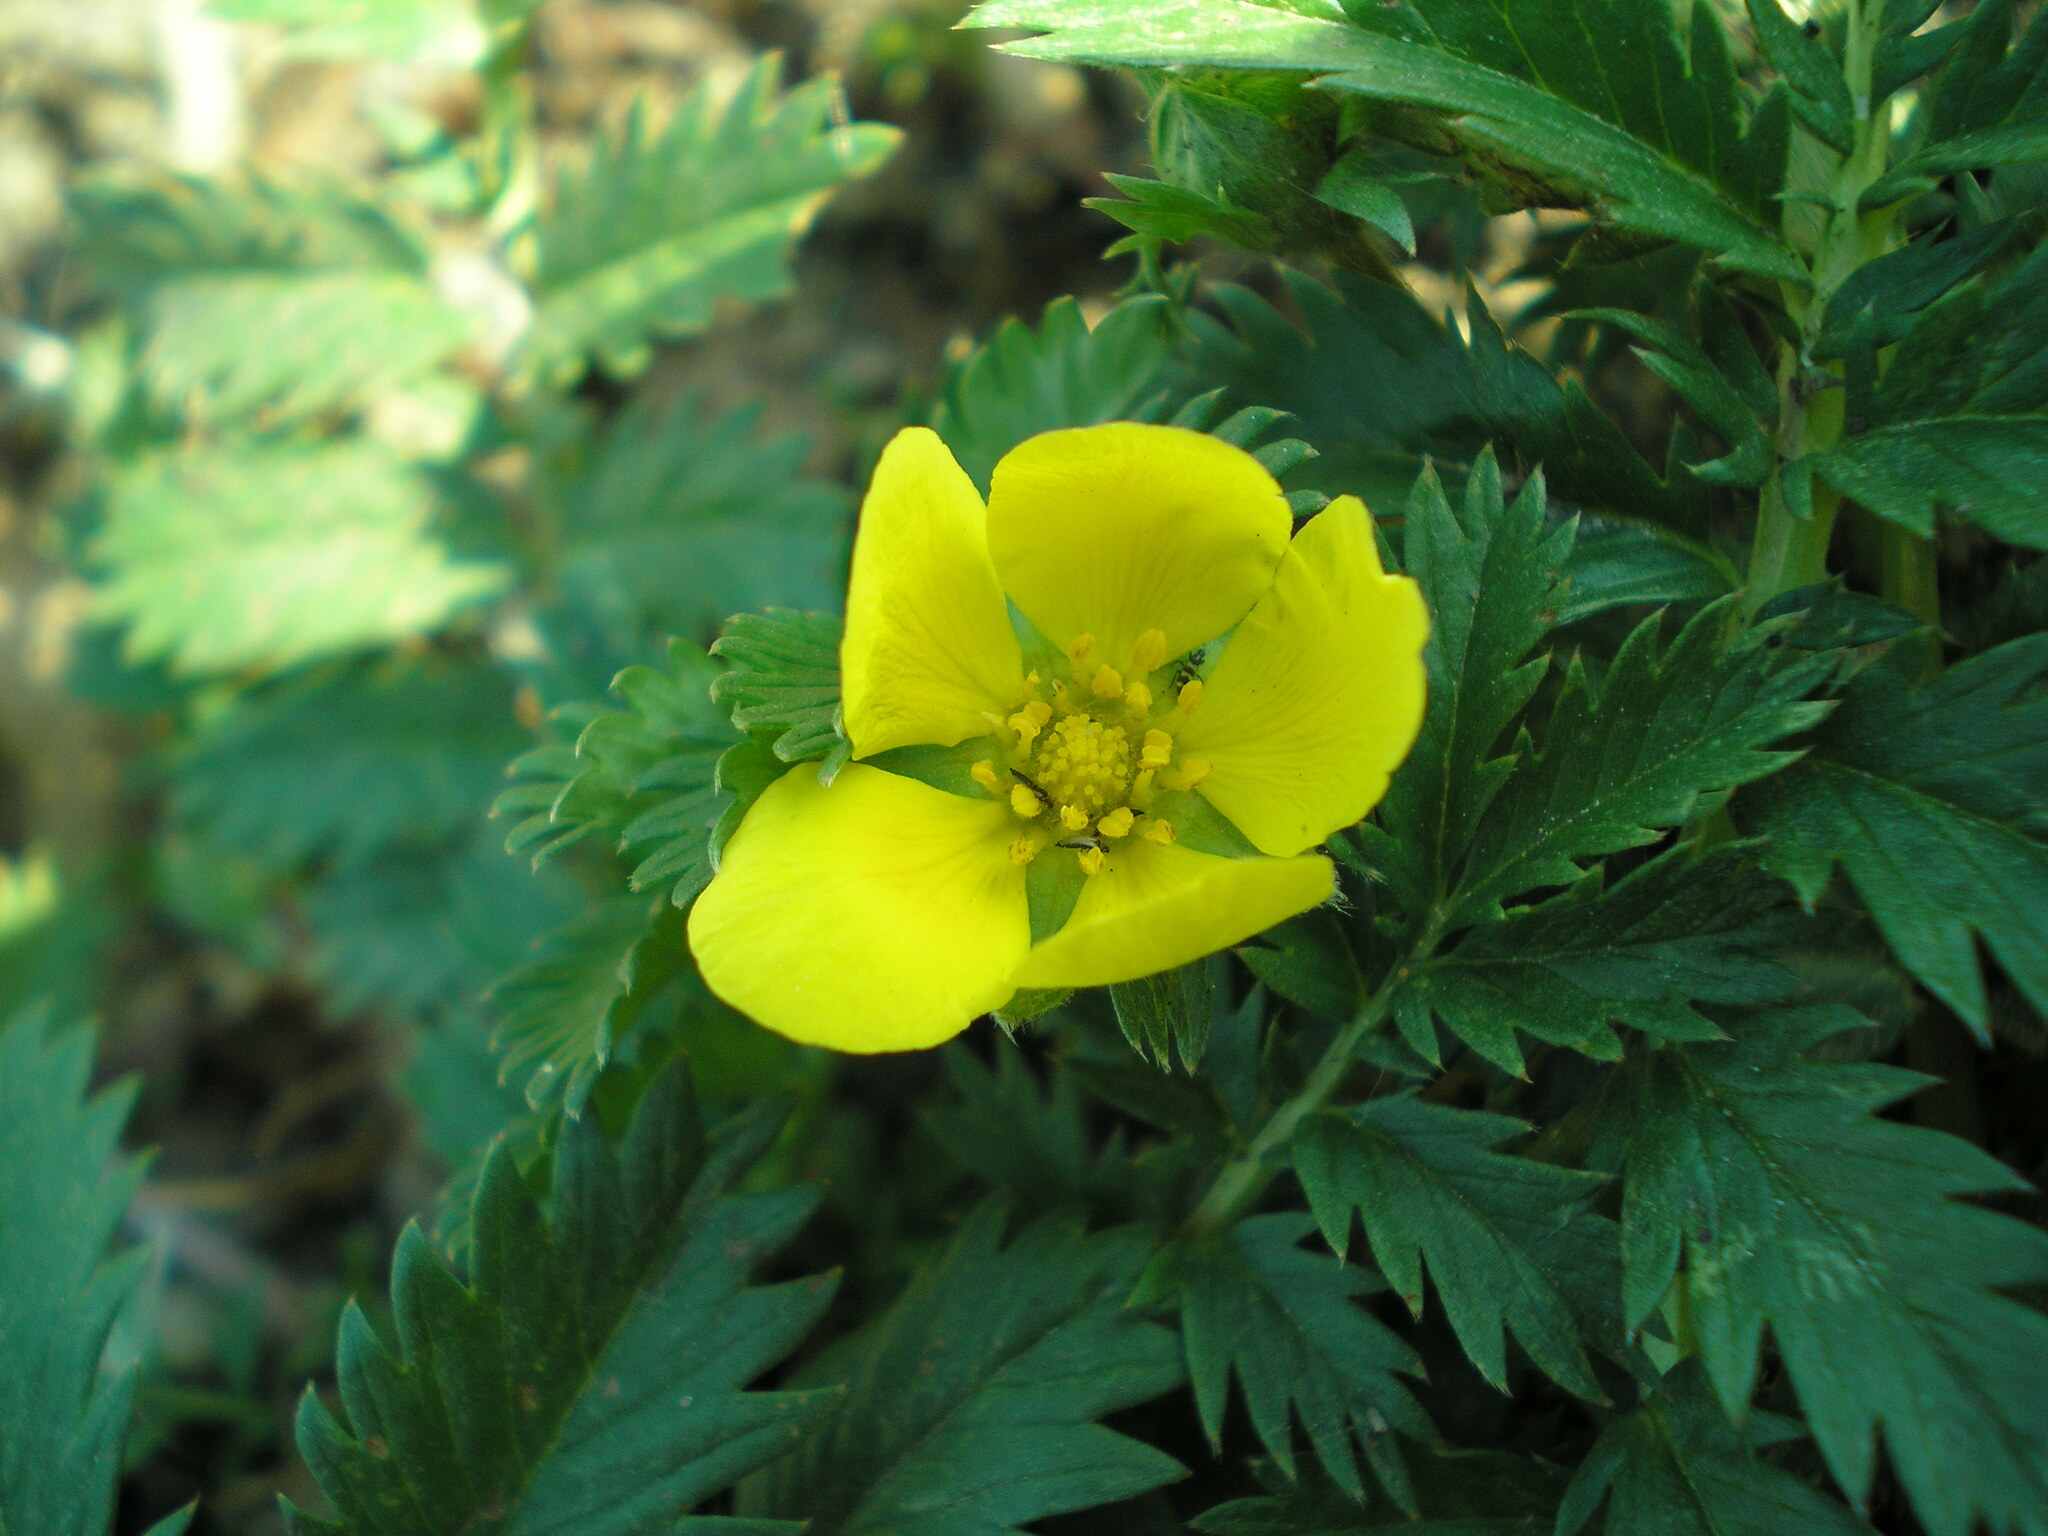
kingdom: Plantae
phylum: Tracheophyta
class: Magnoliopsida
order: Rosales
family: Rosaceae
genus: Argentina
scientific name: Argentina anserina
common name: Common silverweed
